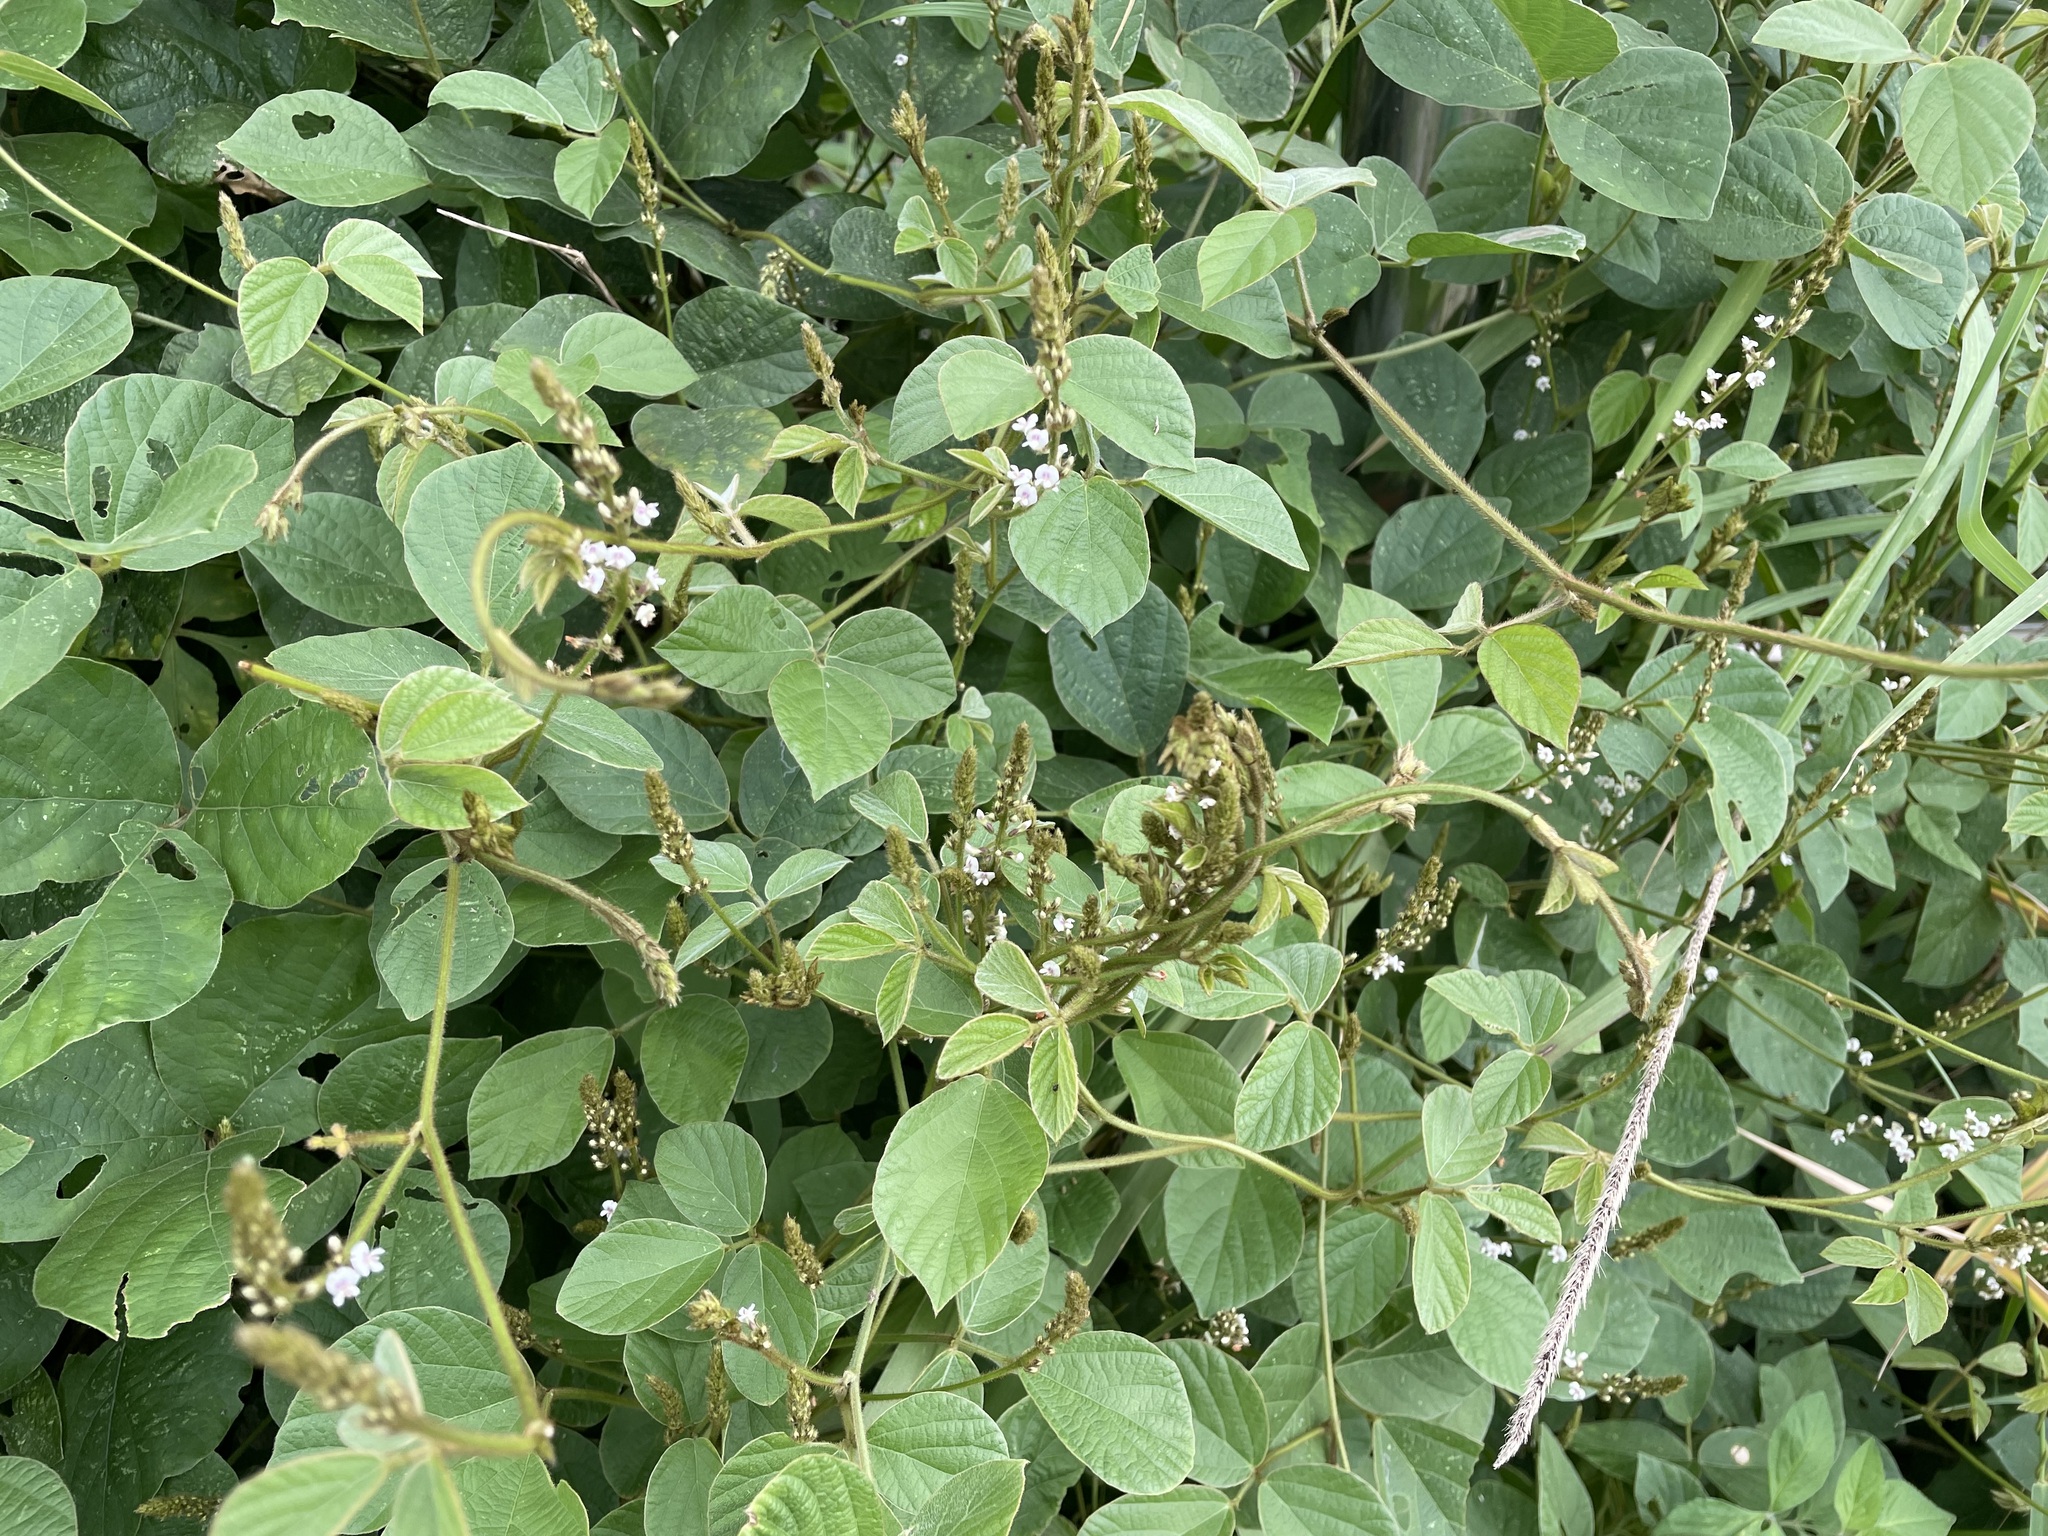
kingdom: Plantae
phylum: Tracheophyta
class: Magnoliopsida
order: Fabales
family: Fabaceae
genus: Neonotonia
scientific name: Neonotonia wightii
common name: Perennial soybean
